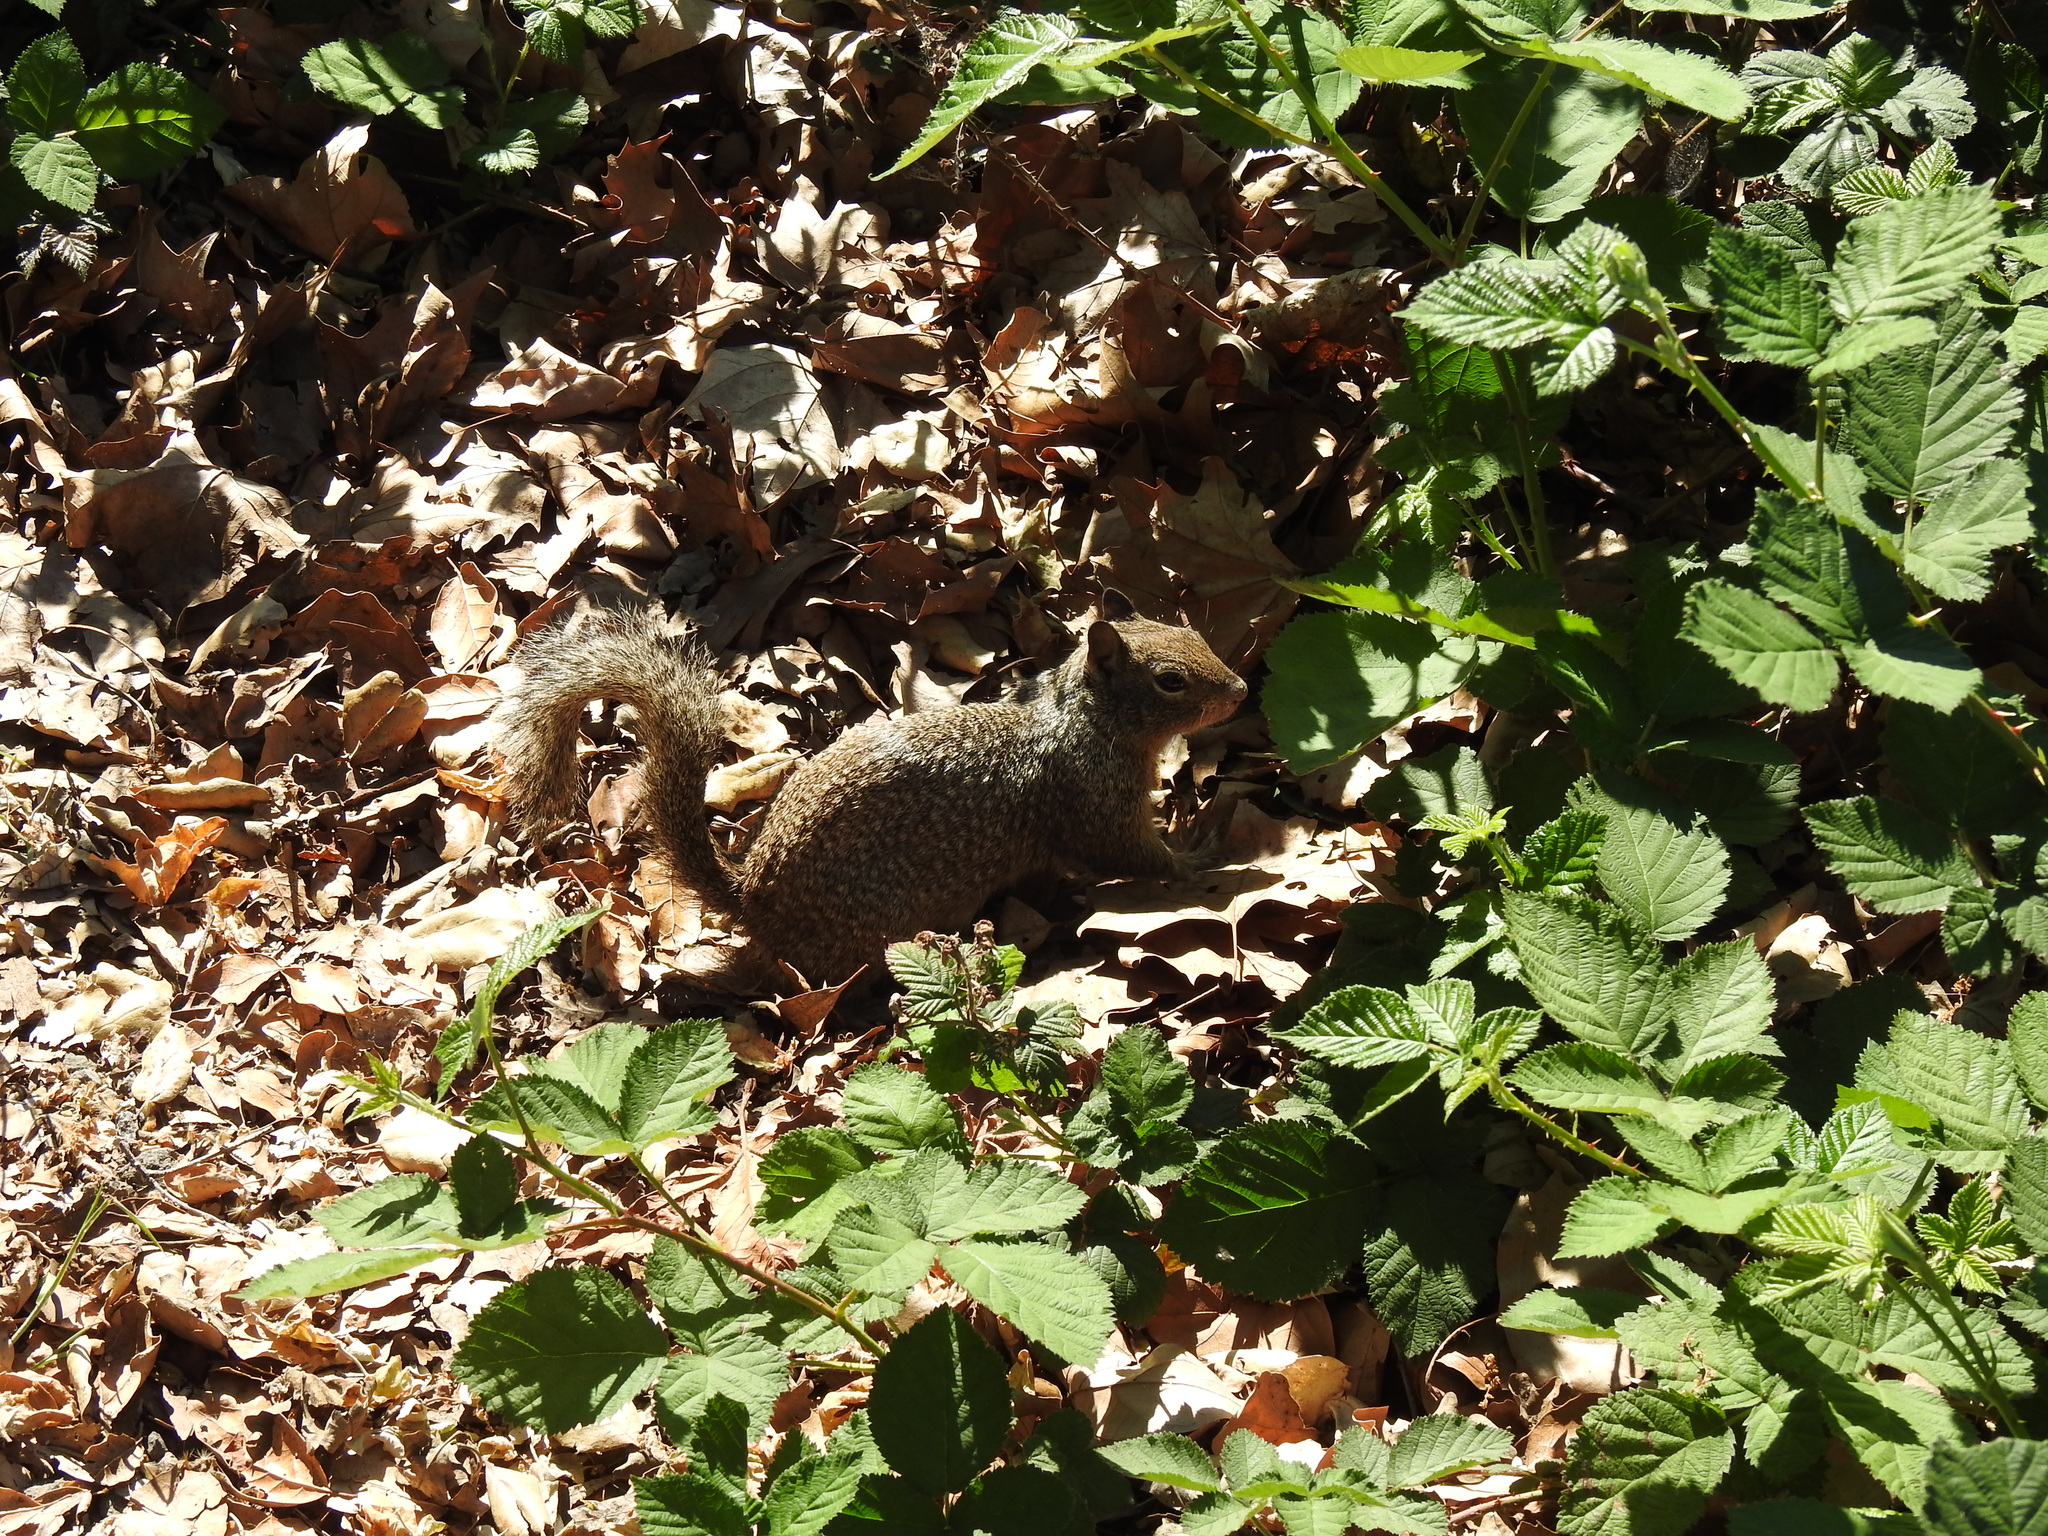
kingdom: Animalia
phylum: Chordata
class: Mammalia
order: Rodentia
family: Sciuridae
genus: Otospermophilus
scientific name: Otospermophilus beecheyi
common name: California ground squirrel
